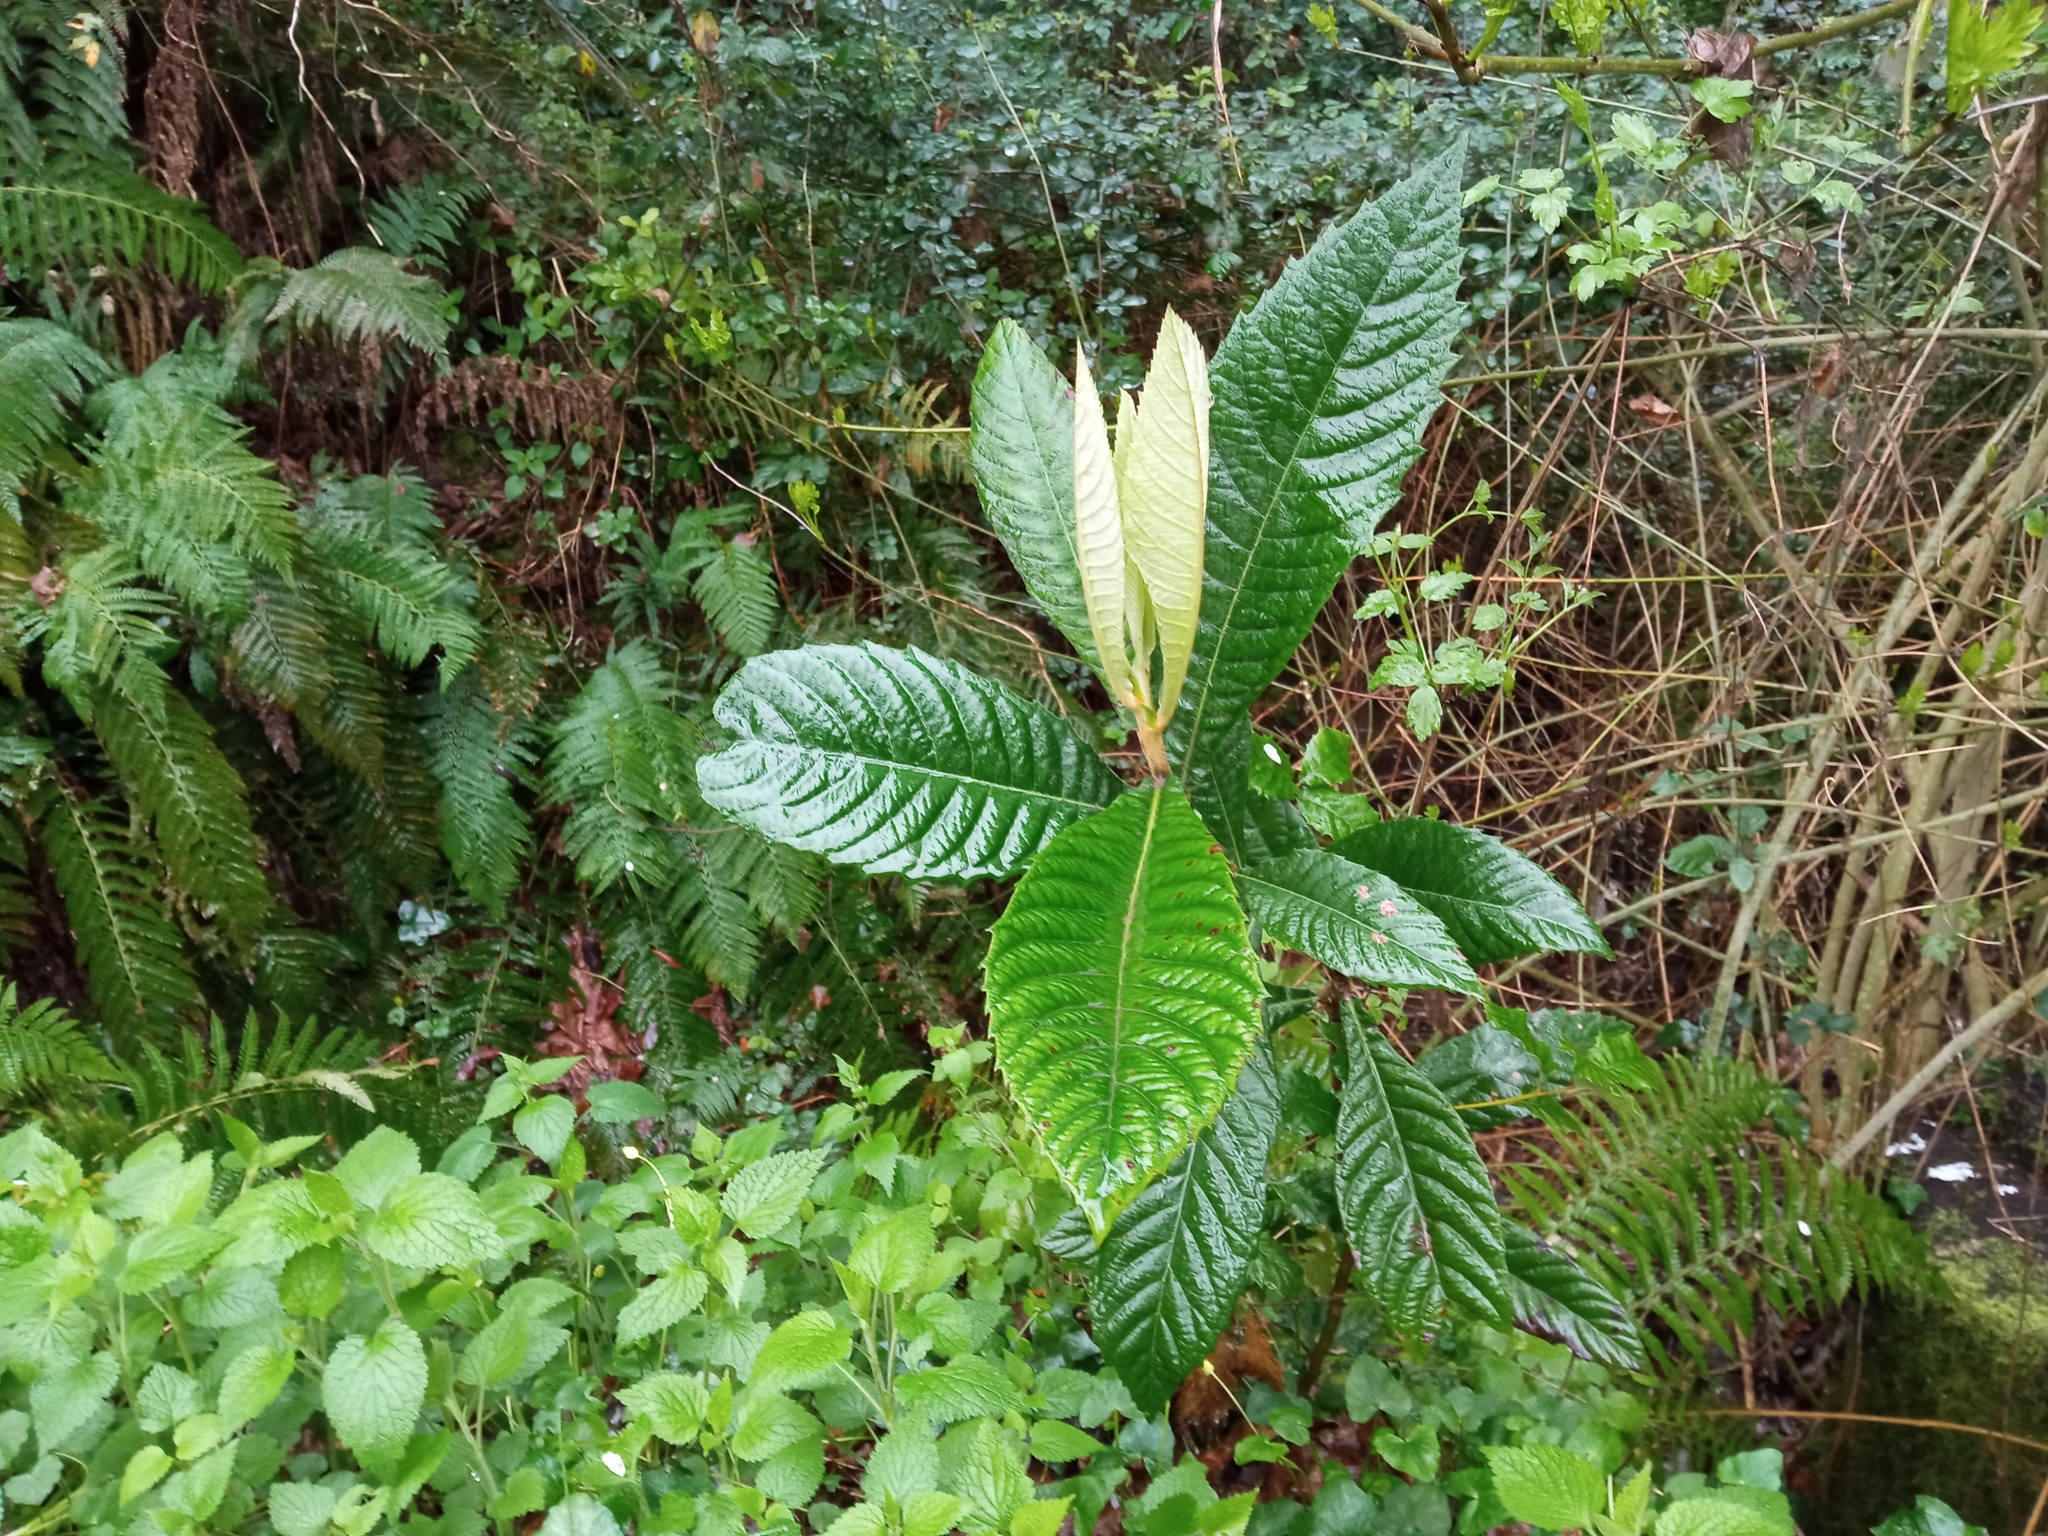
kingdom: Plantae
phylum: Tracheophyta
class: Magnoliopsida
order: Rosales
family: Rosaceae
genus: Rhaphiolepis
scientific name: Rhaphiolepis bibas
